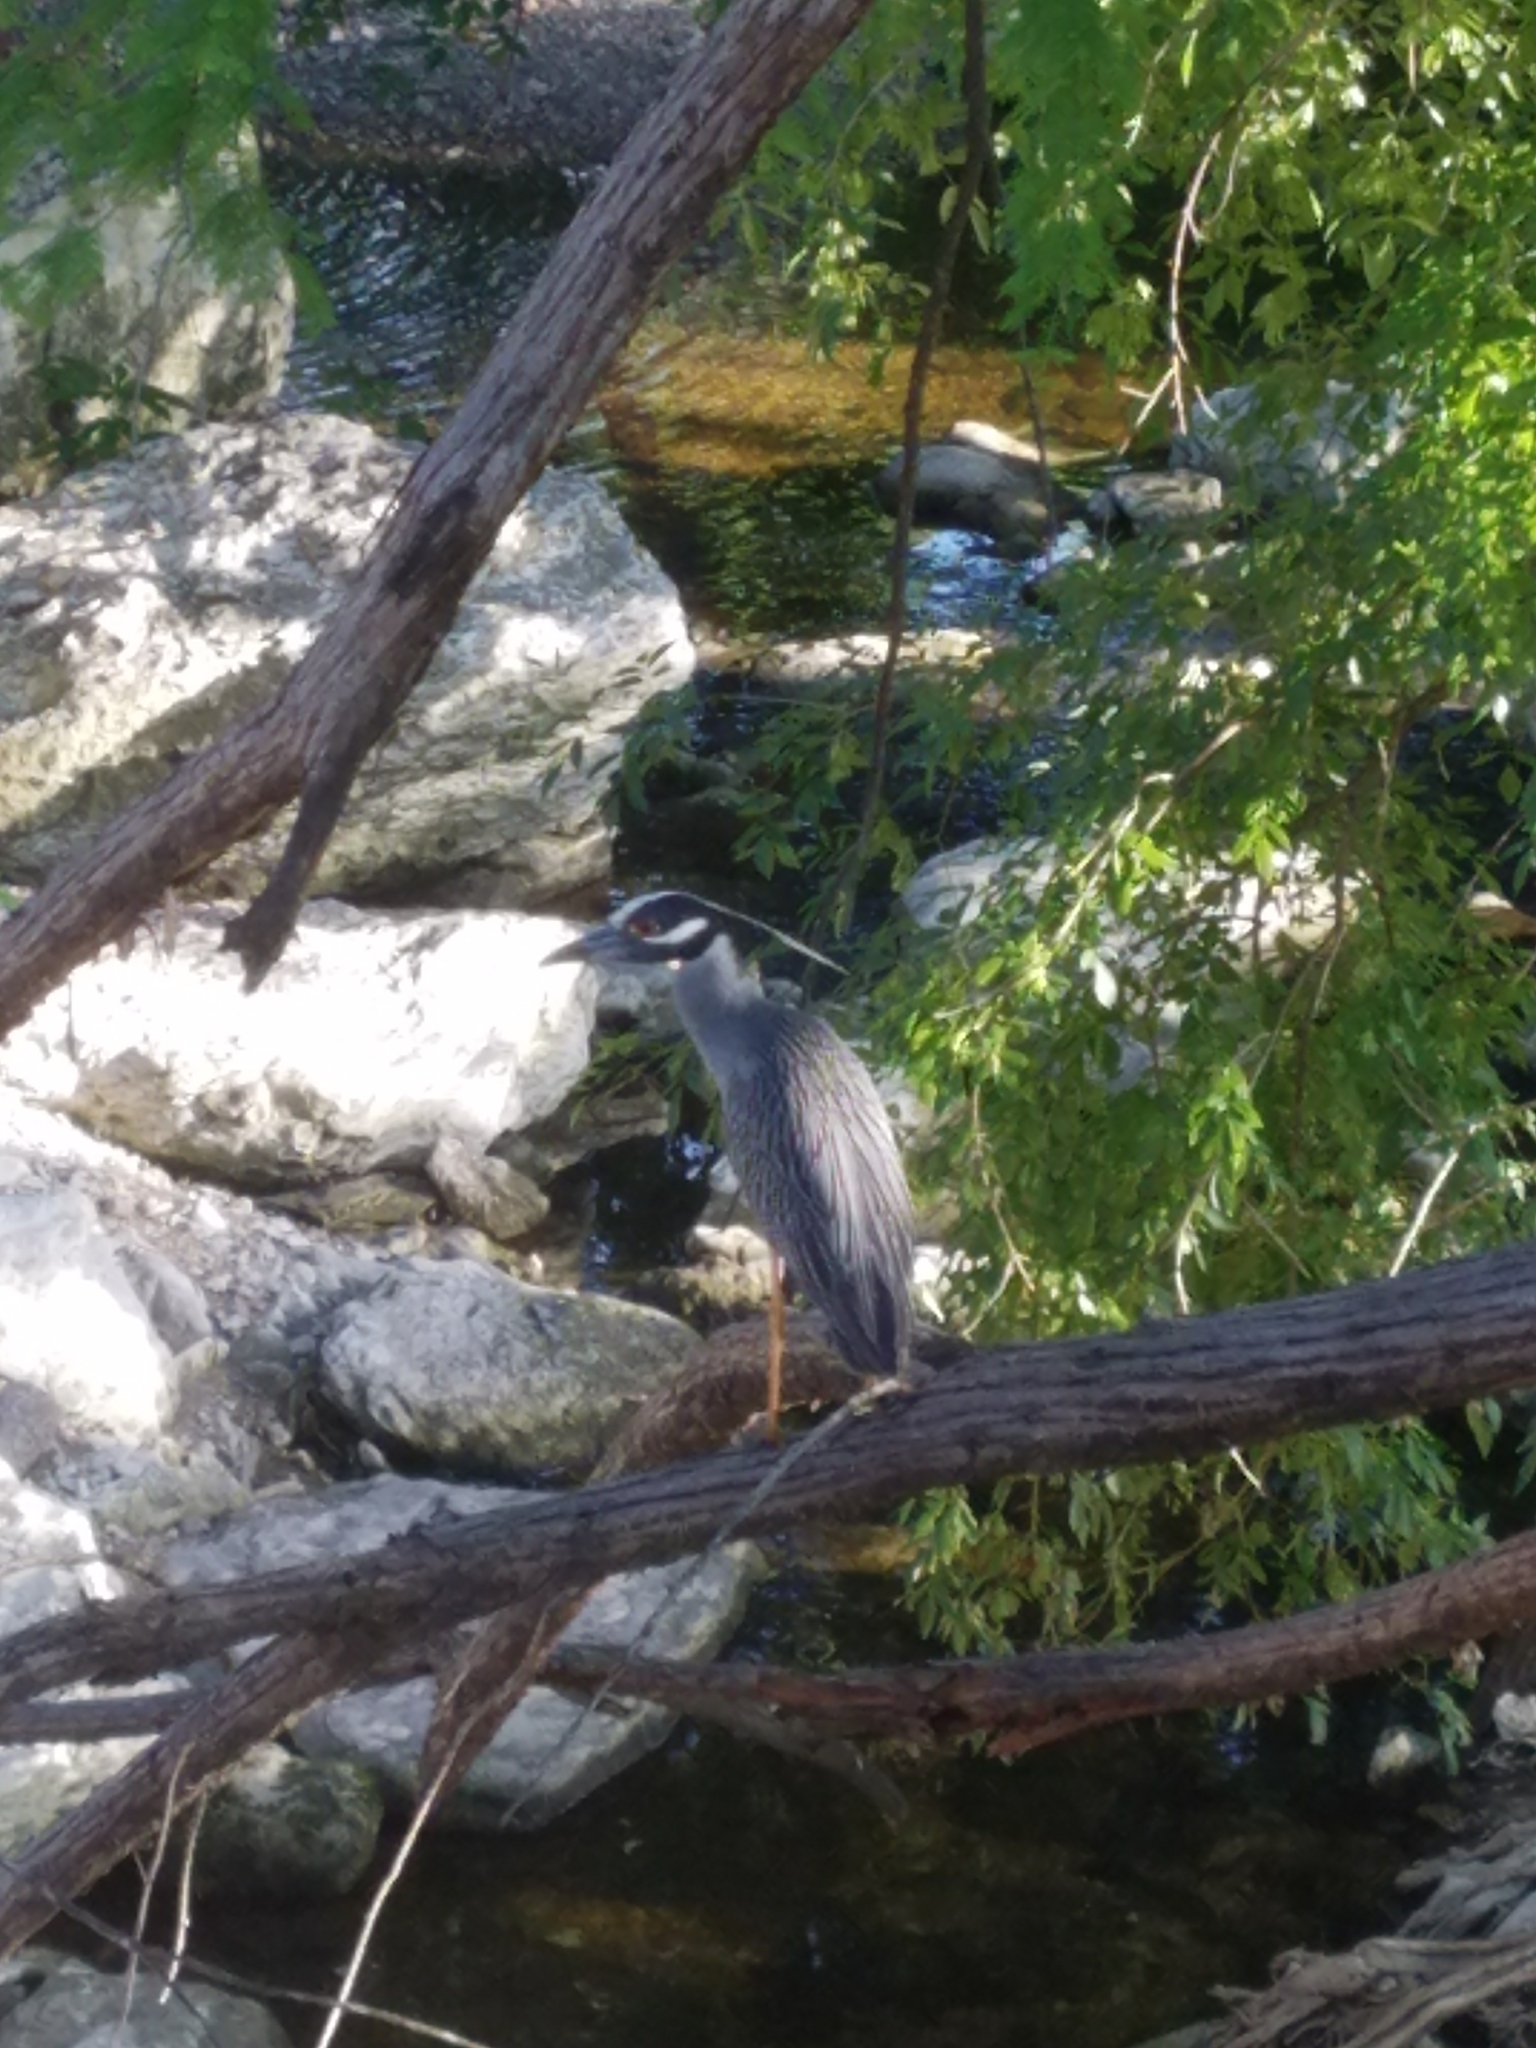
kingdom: Animalia
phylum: Chordata
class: Aves
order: Pelecaniformes
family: Ardeidae
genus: Nyctanassa
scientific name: Nyctanassa violacea
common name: Yellow-crowned night heron
